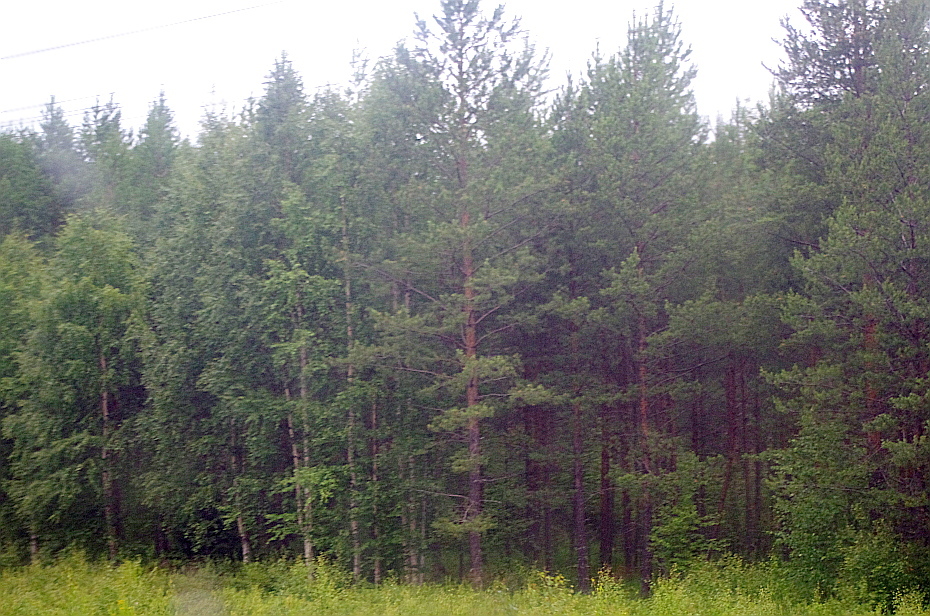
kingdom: Plantae
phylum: Tracheophyta
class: Pinopsida
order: Pinales
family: Pinaceae
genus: Pinus
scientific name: Pinus sylvestris
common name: Scots pine
